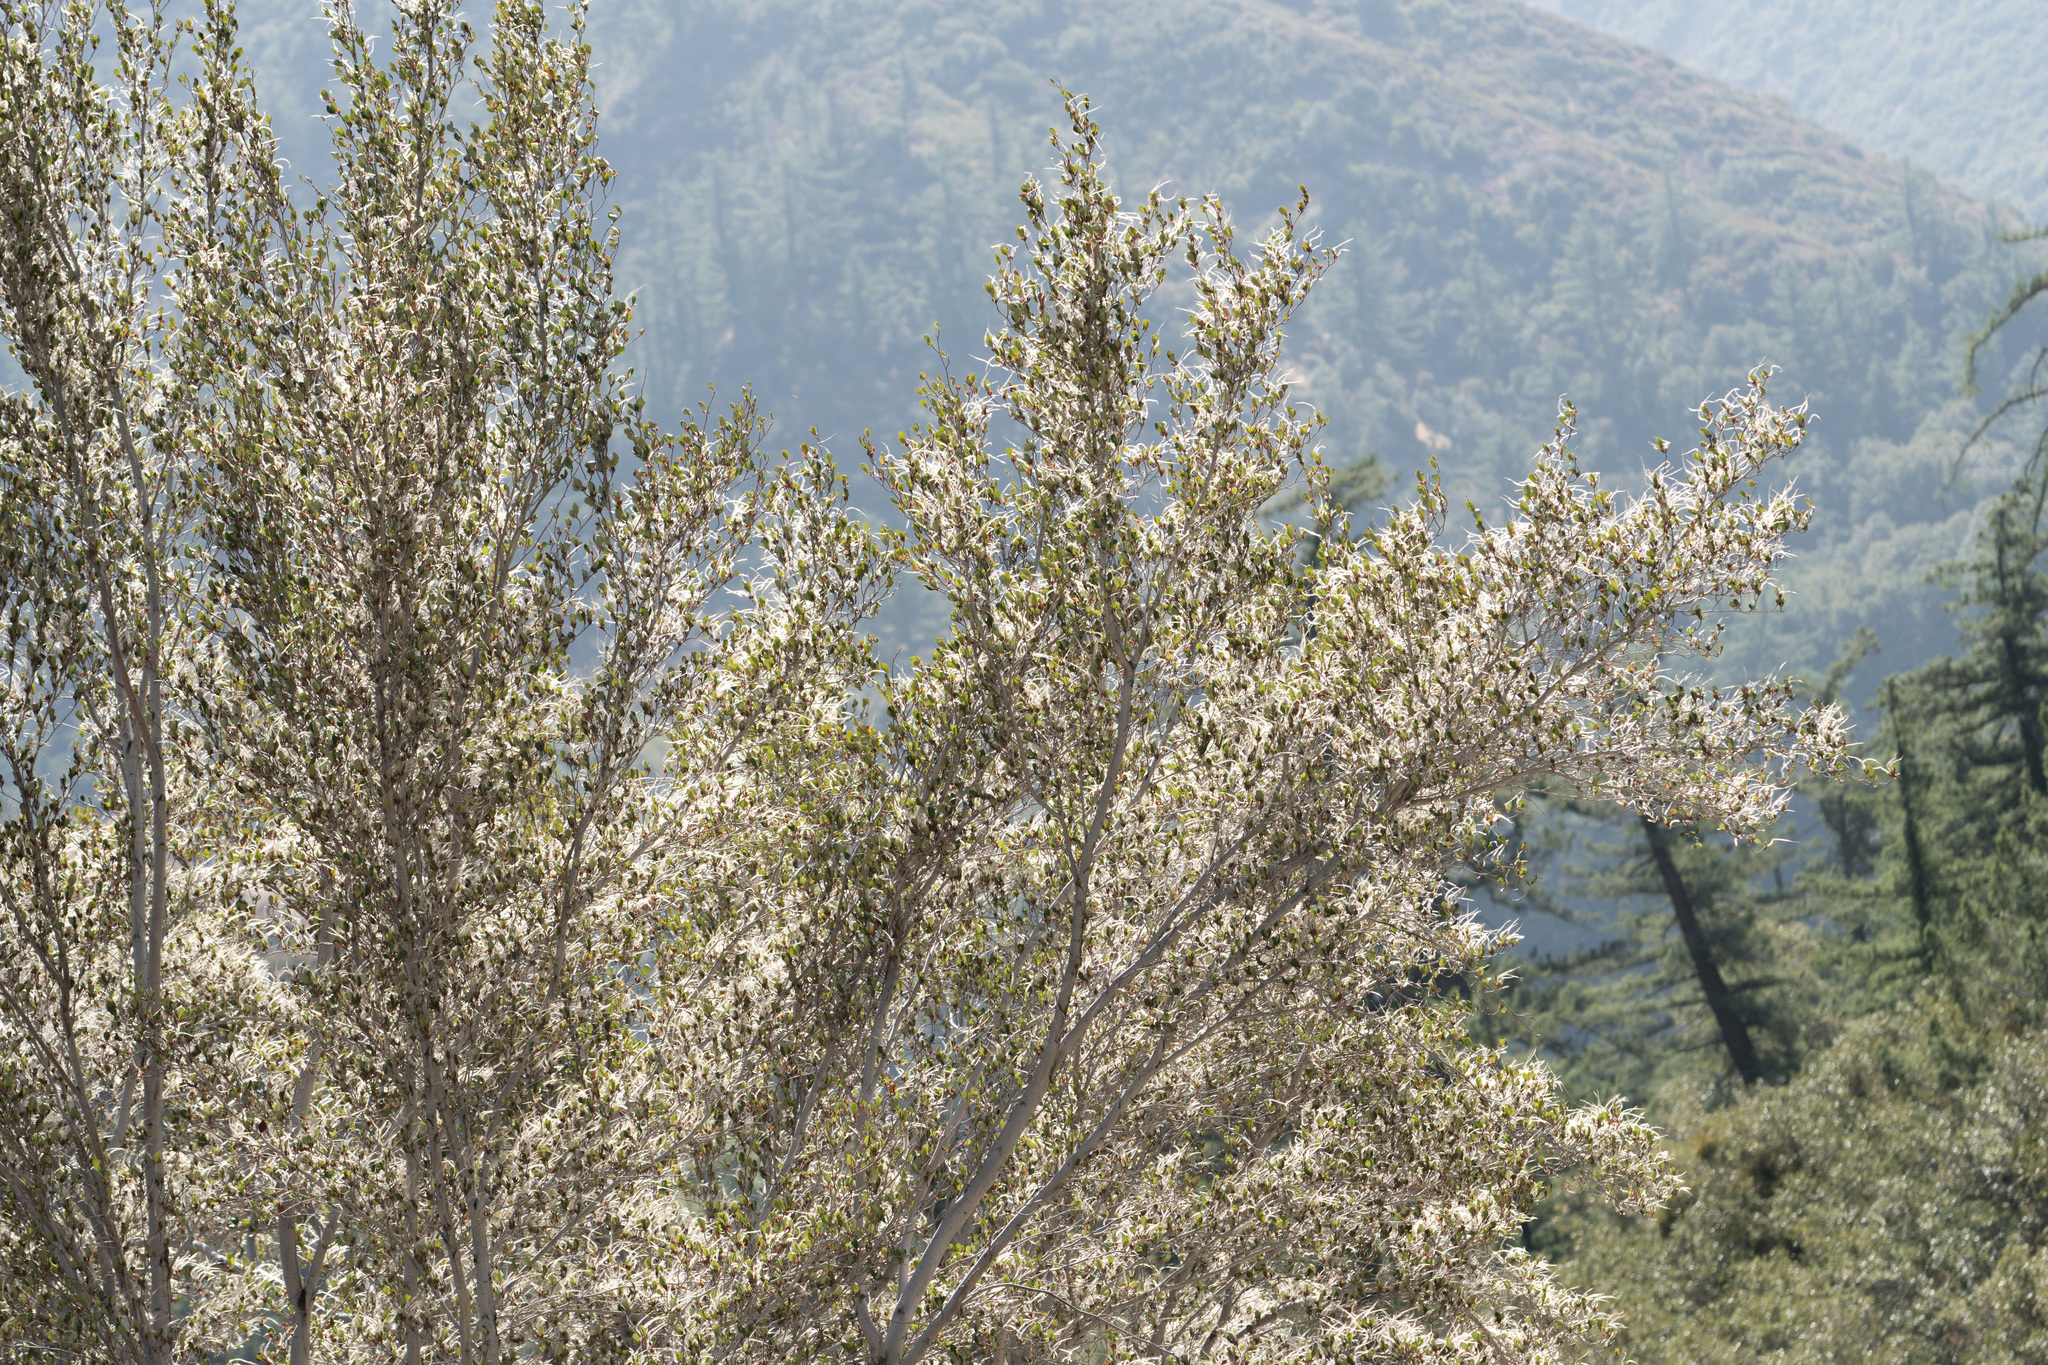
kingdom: Plantae
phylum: Tracheophyta
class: Magnoliopsida
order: Rosales
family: Rosaceae
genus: Cercocarpus
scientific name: Cercocarpus betuloides
